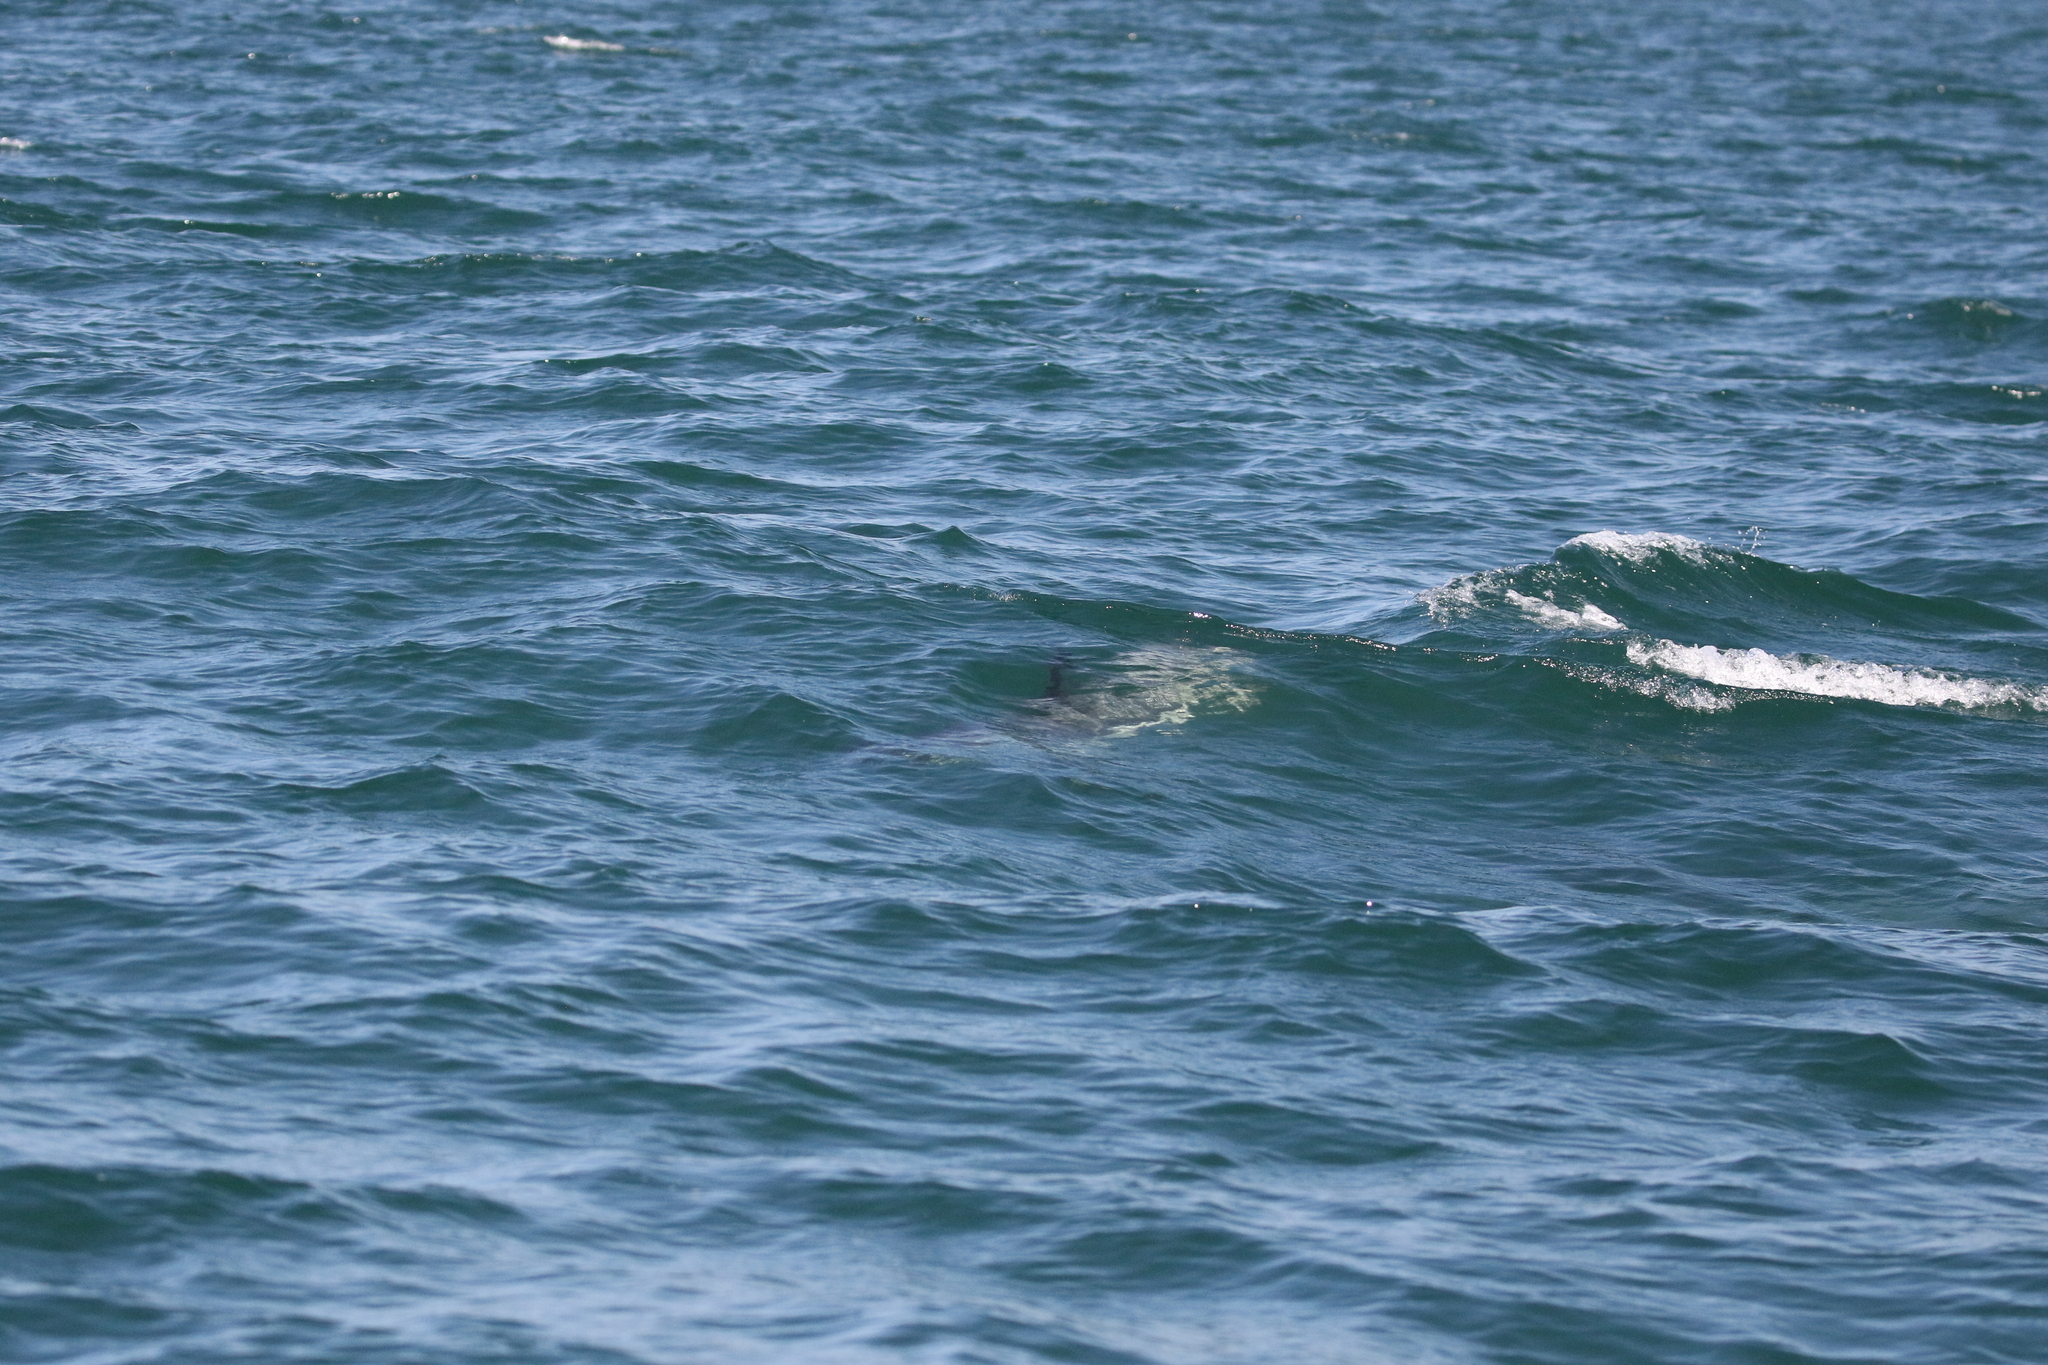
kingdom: Animalia
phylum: Chordata
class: Mammalia
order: Cetacea
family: Delphinidae
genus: Lagenorhynchus
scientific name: Lagenorhynchus acutus
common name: Atlantic white-sided dolphin
